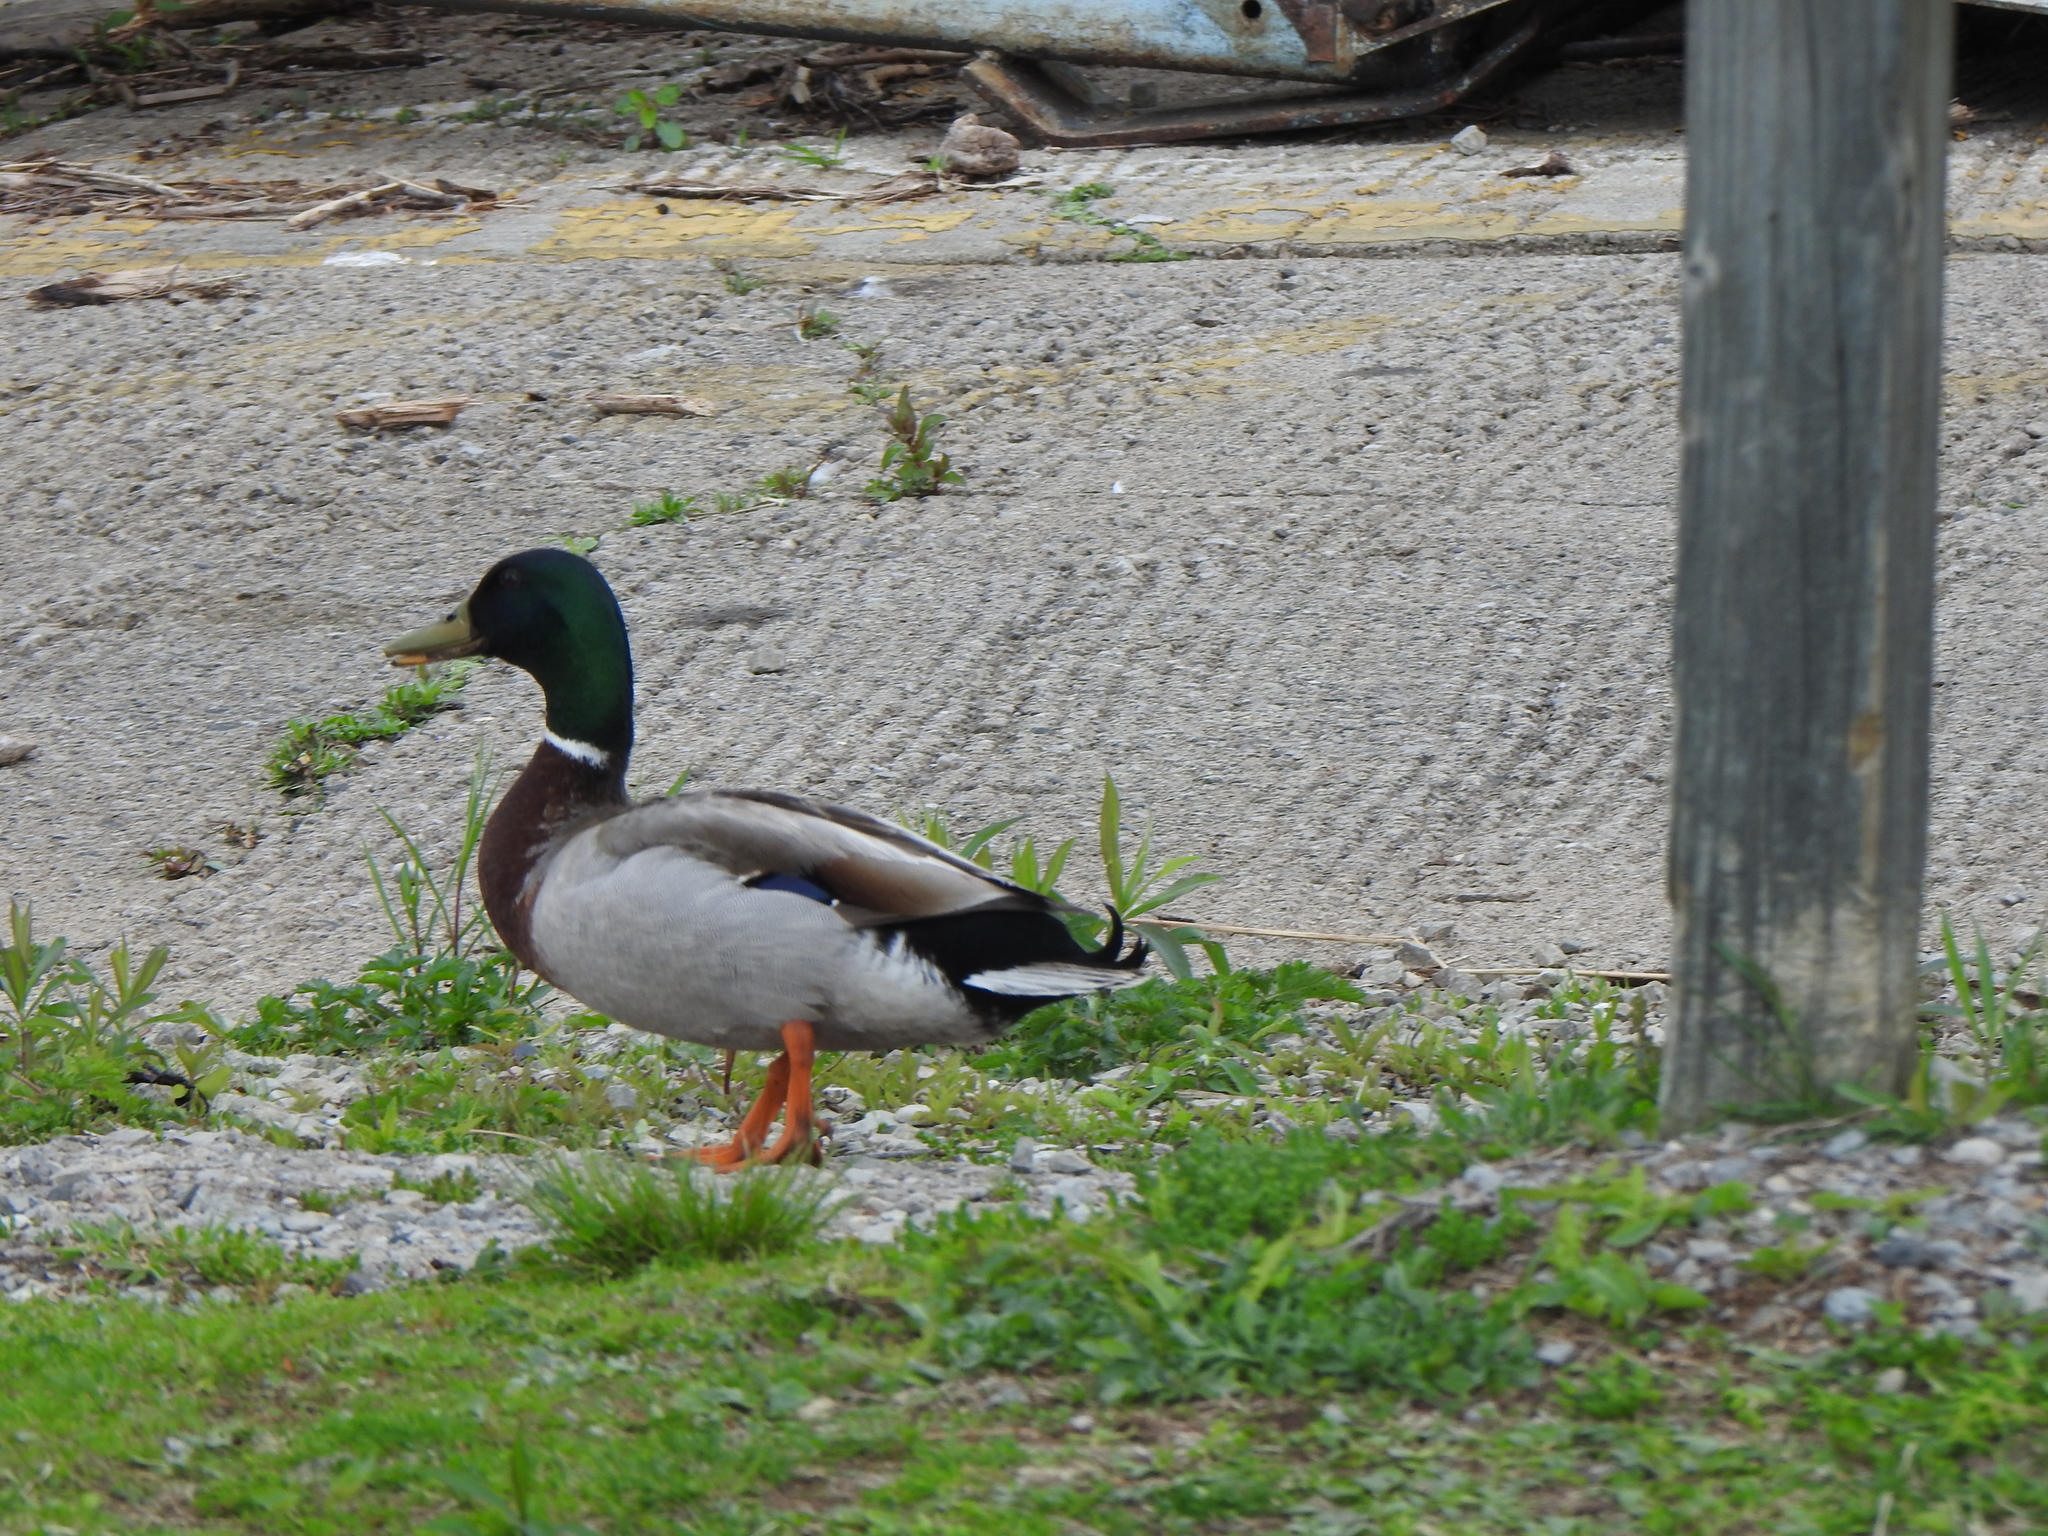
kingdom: Animalia
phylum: Chordata
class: Aves
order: Anseriformes
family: Anatidae
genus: Anas
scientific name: Anas platyrhynchos
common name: Mallard
